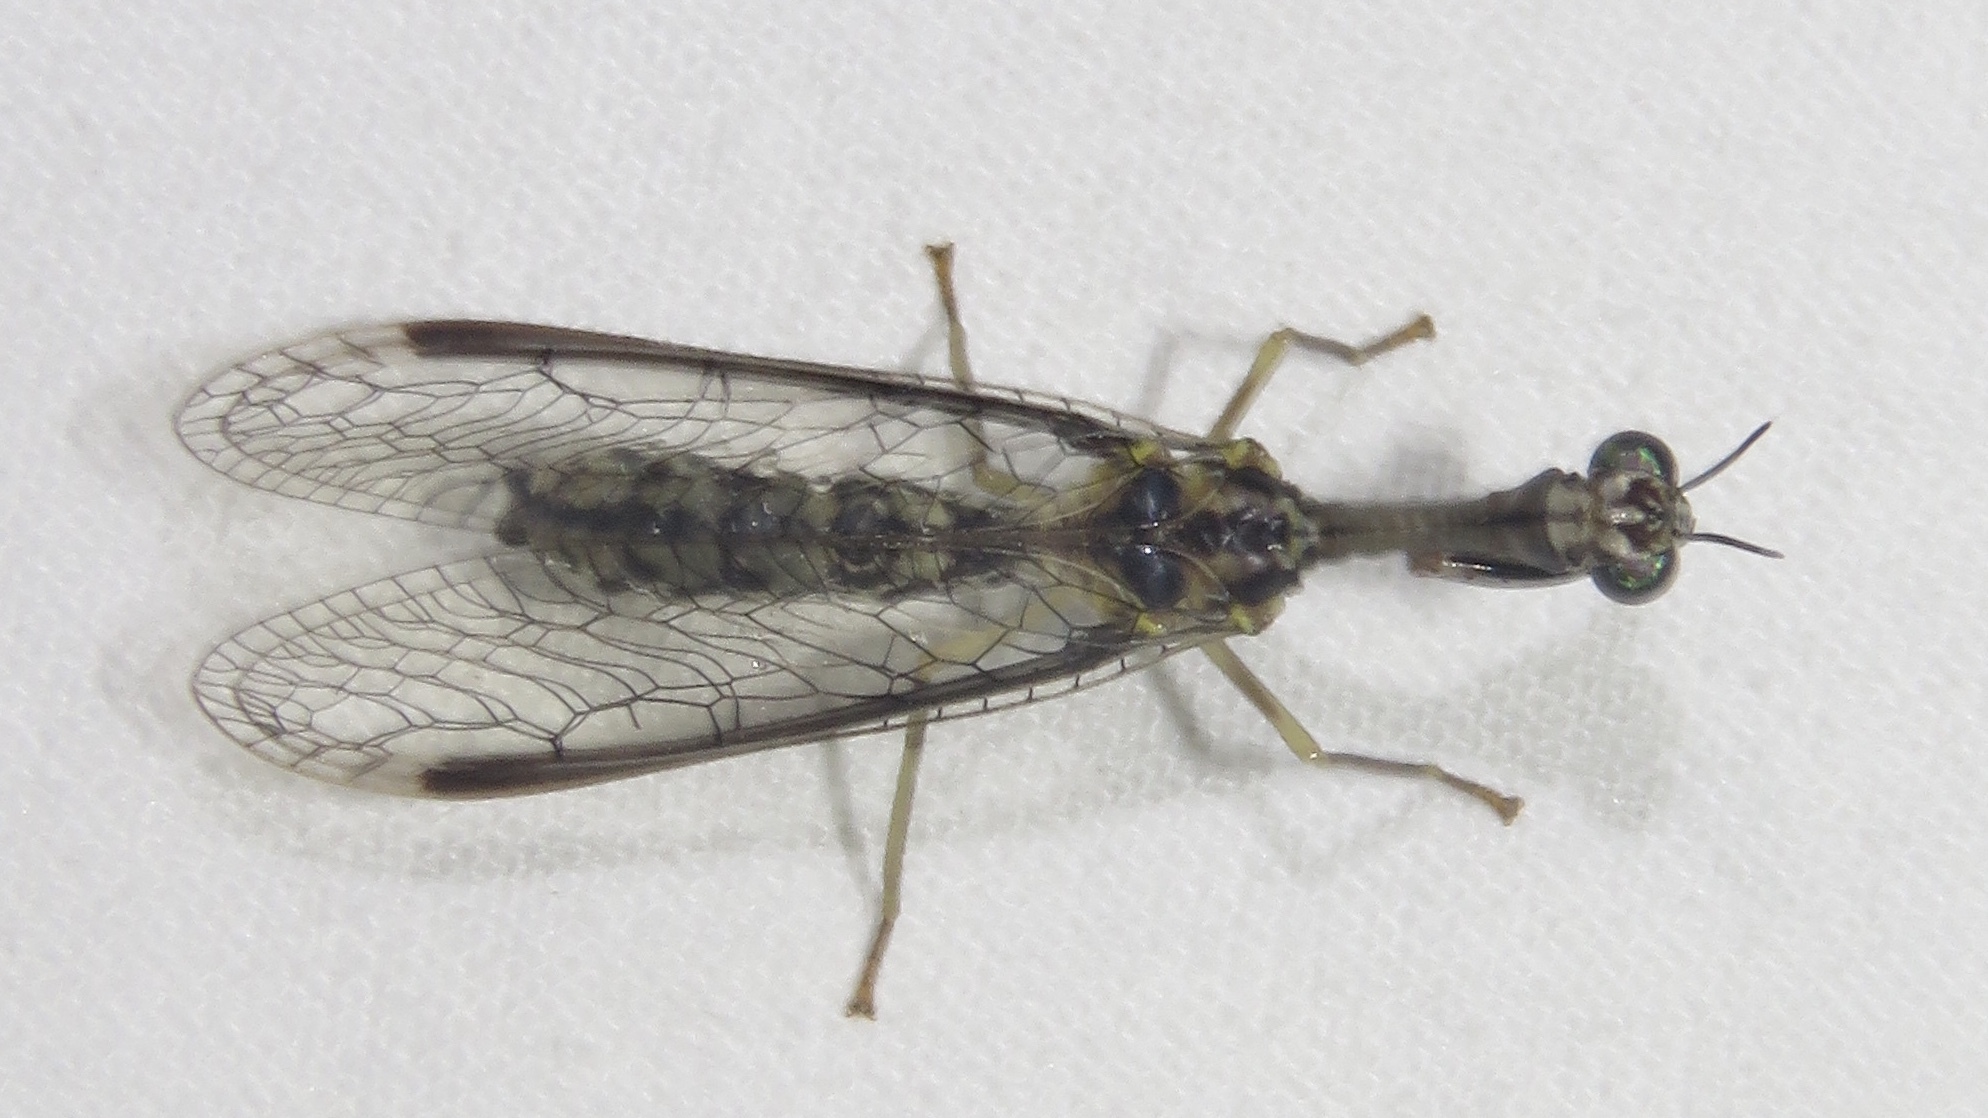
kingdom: Animalia
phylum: Arthropoda
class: Insecta
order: Neuroptera
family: Mantispidae
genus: Leptomantispa
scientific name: Leptomantispa pulchella
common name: Stevens's mantidfly
